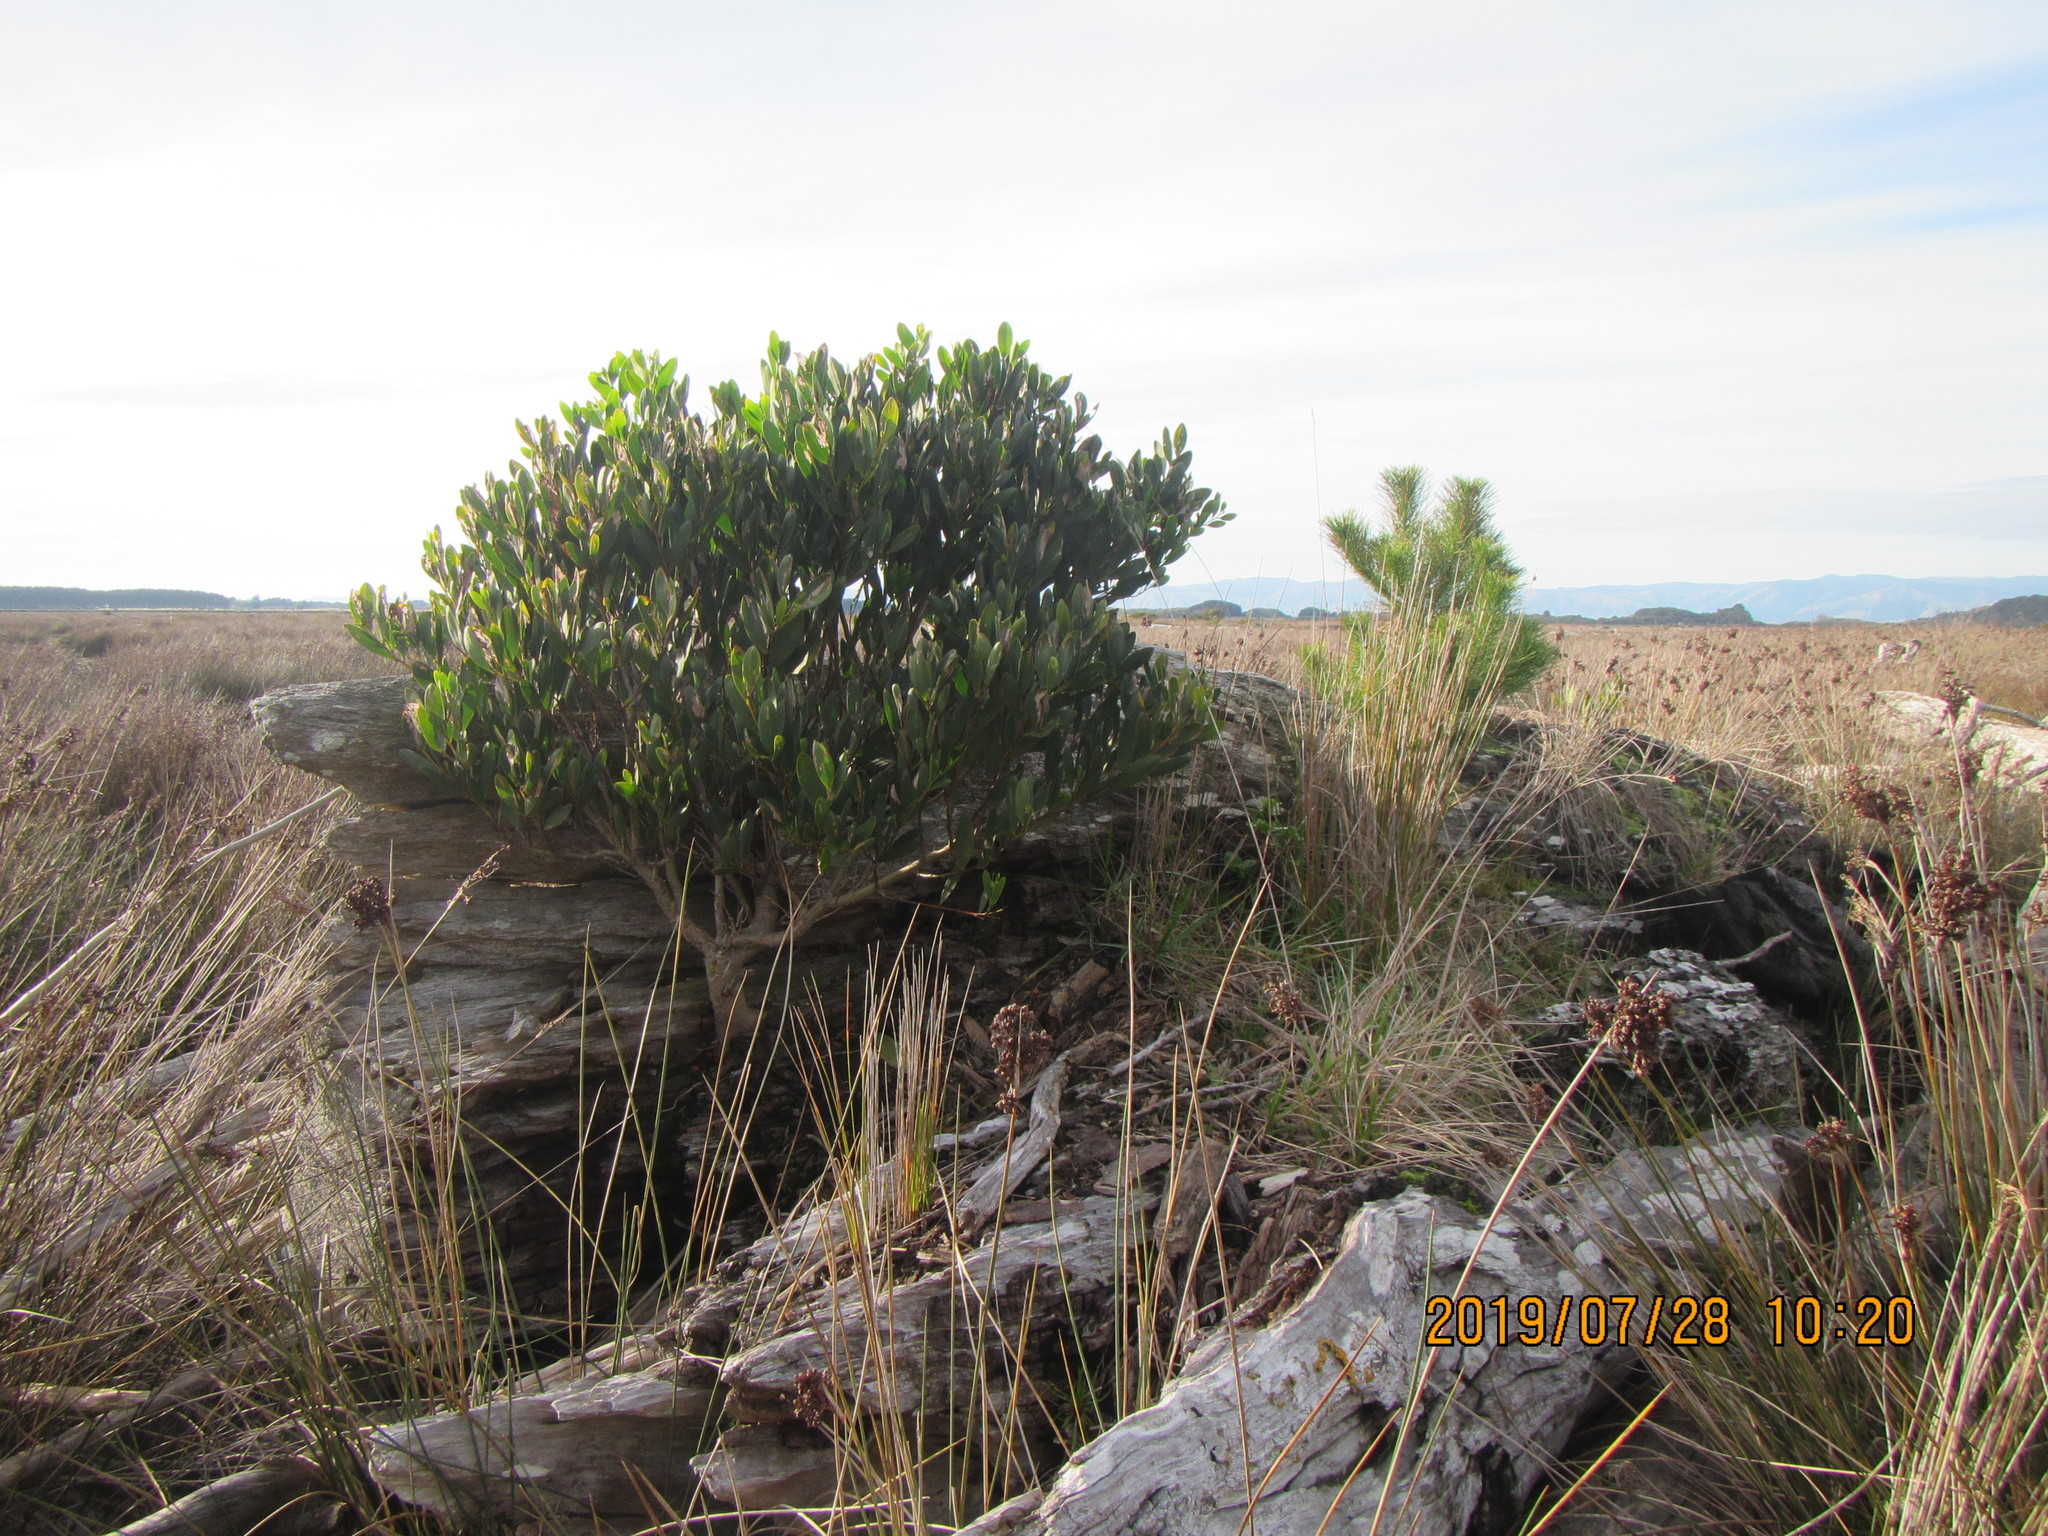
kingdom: Plantae
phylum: Tracheophyta
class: Pinopsida
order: Pinales
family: Pinaceae
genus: Pinus
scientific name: Pinus radiata
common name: Monterey pine
